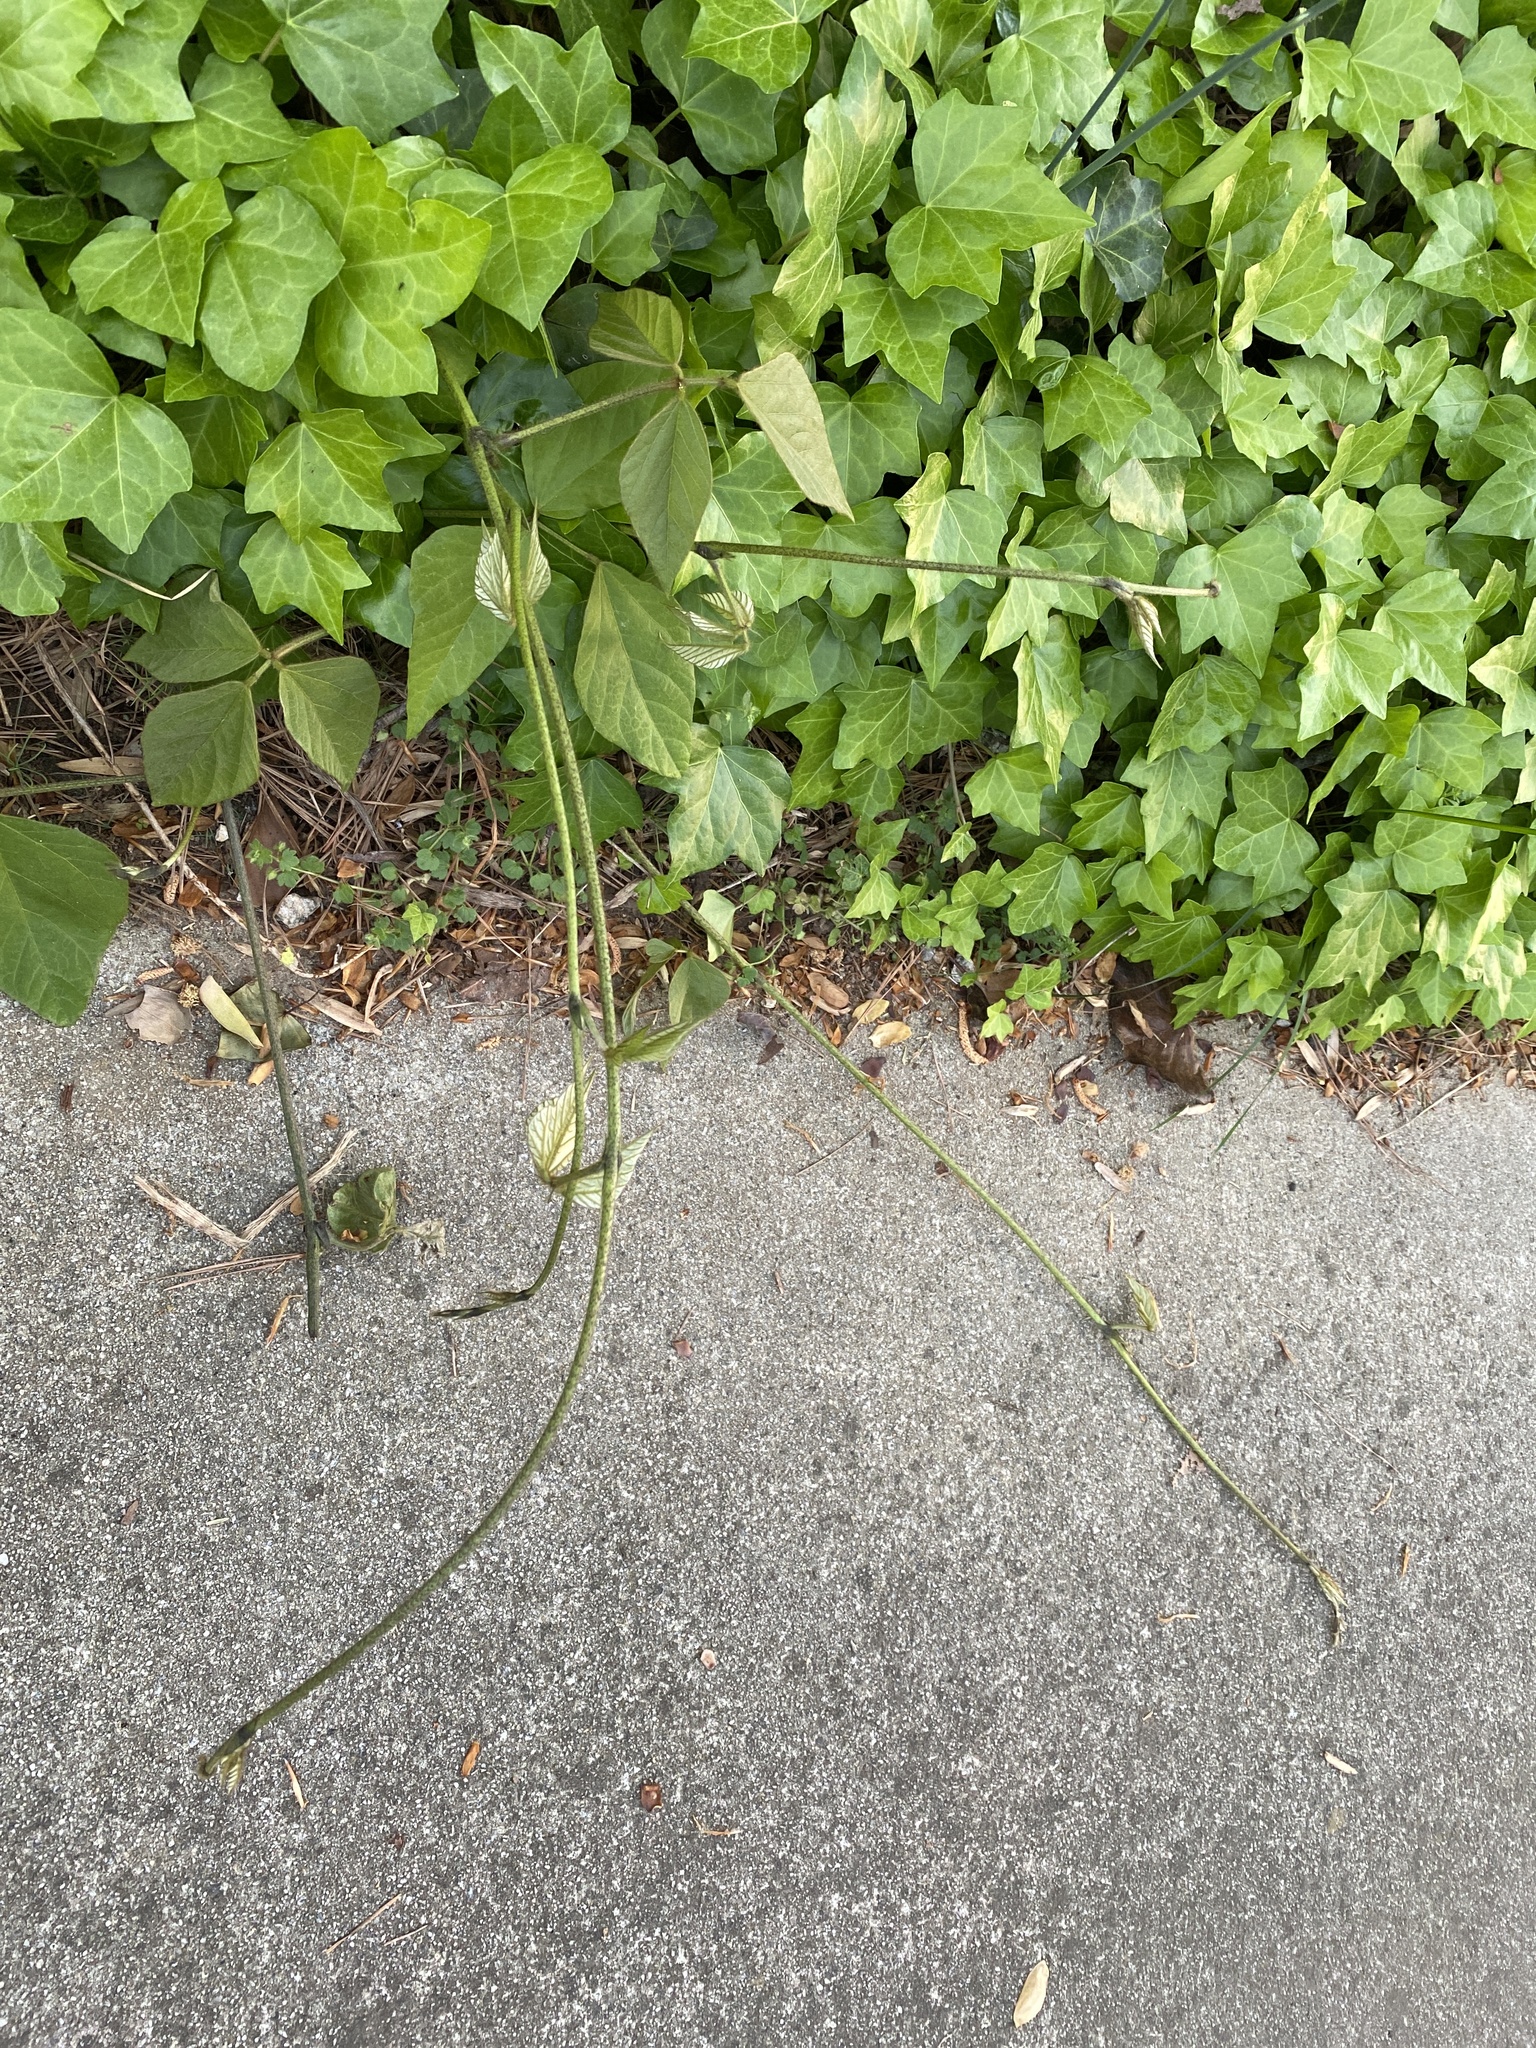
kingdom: Plantae
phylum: Tracheophyta
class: Magnoliopsida
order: Fabales
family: Fabaceae
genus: Pueraria
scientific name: Pueraria montana
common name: Kudzu
